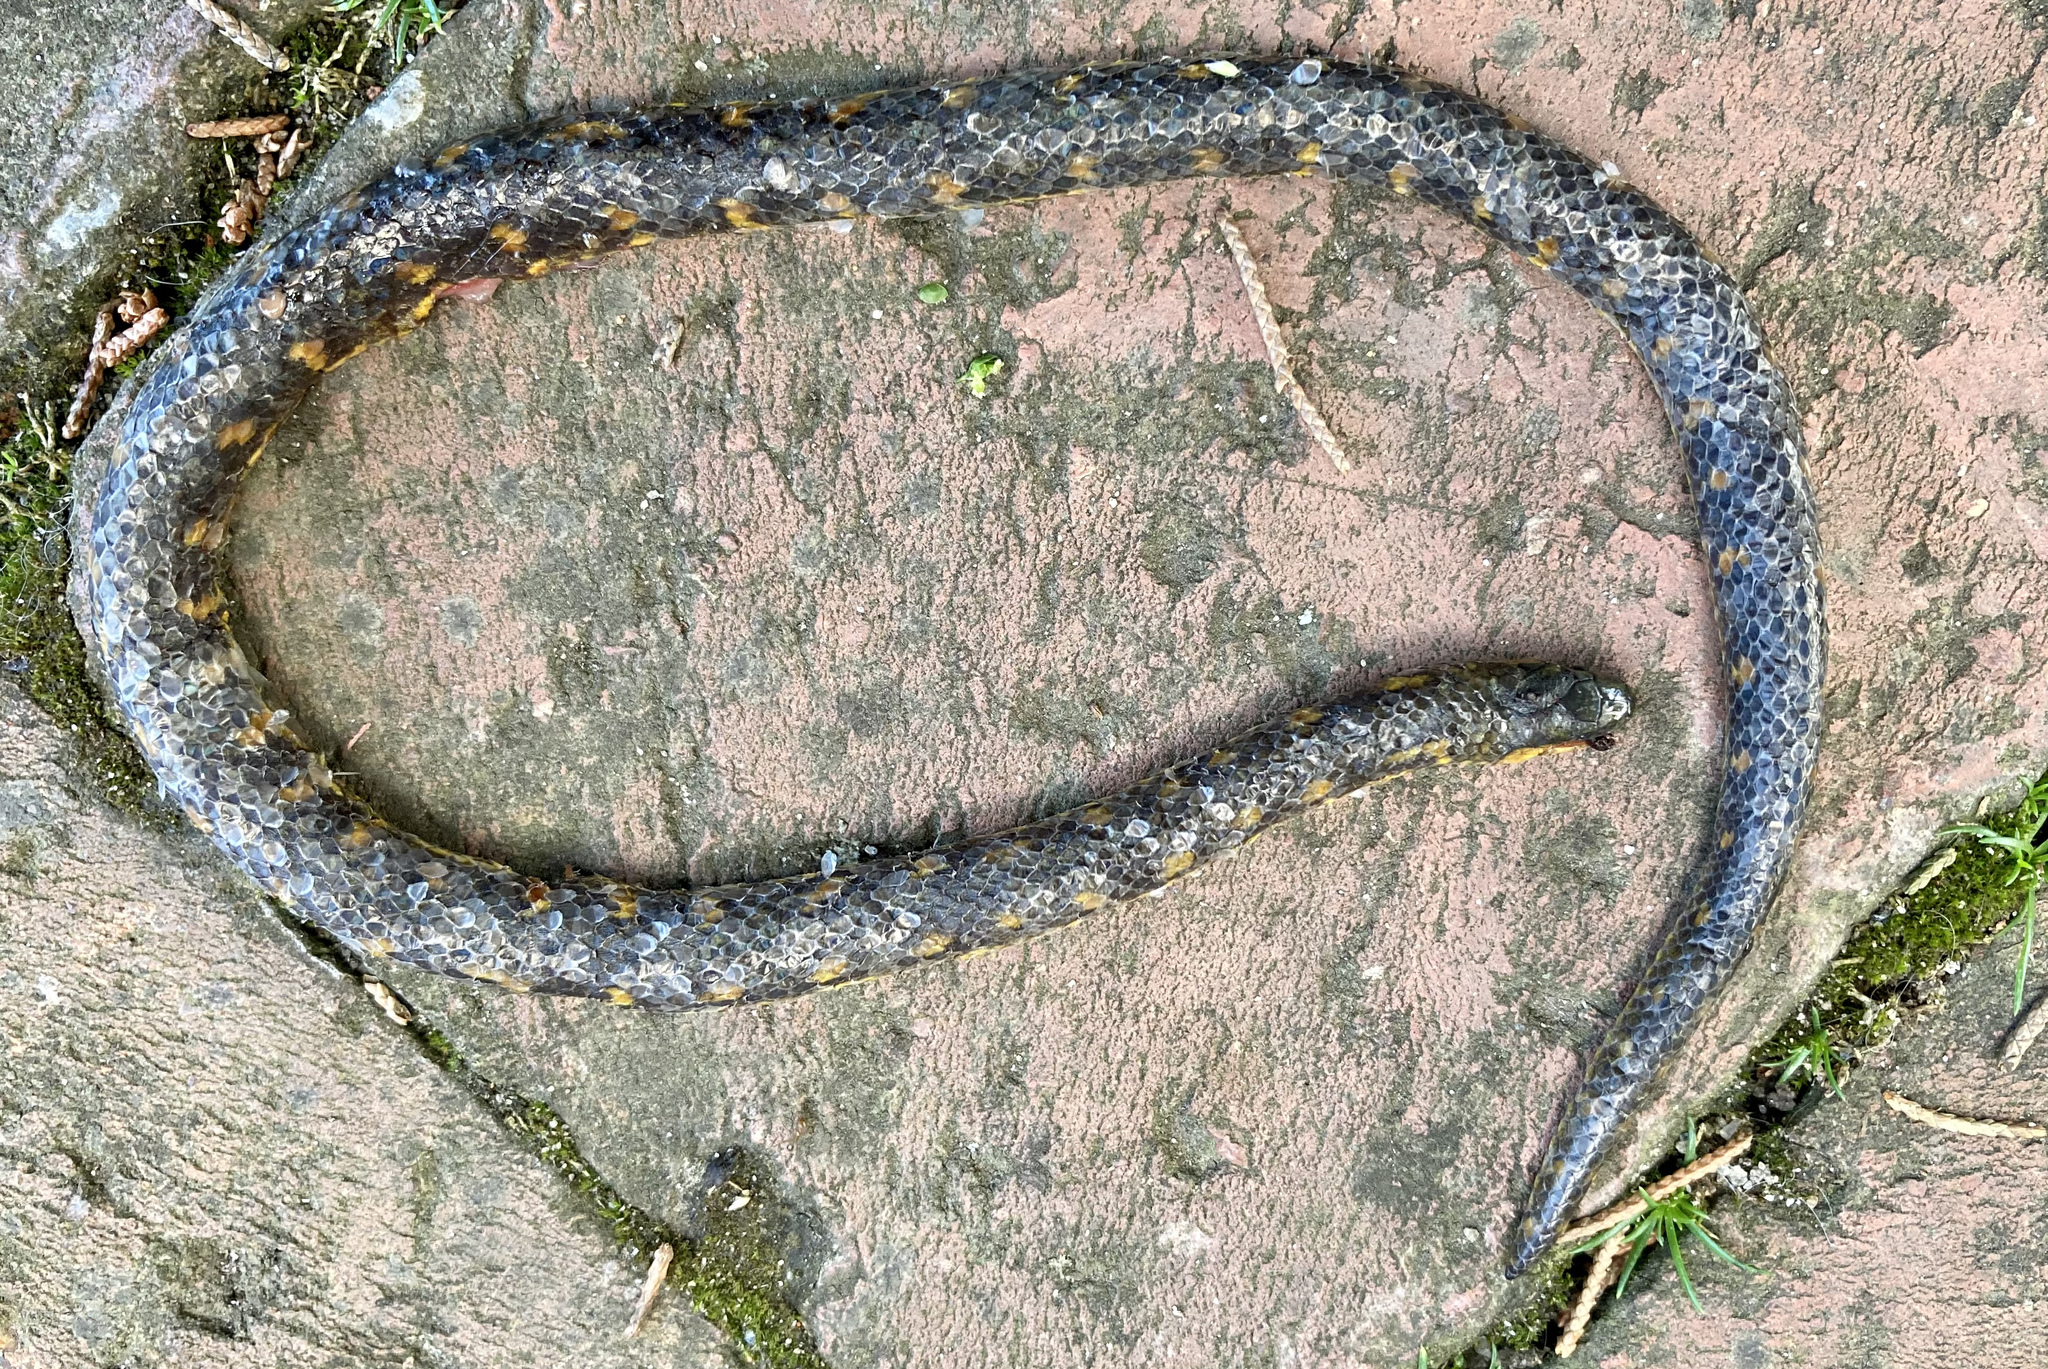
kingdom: Animalia
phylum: Chordata
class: Squamata
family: Colubridae
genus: Atractus
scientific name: Atractus crassicaudatus
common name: Thickhead ground snake
